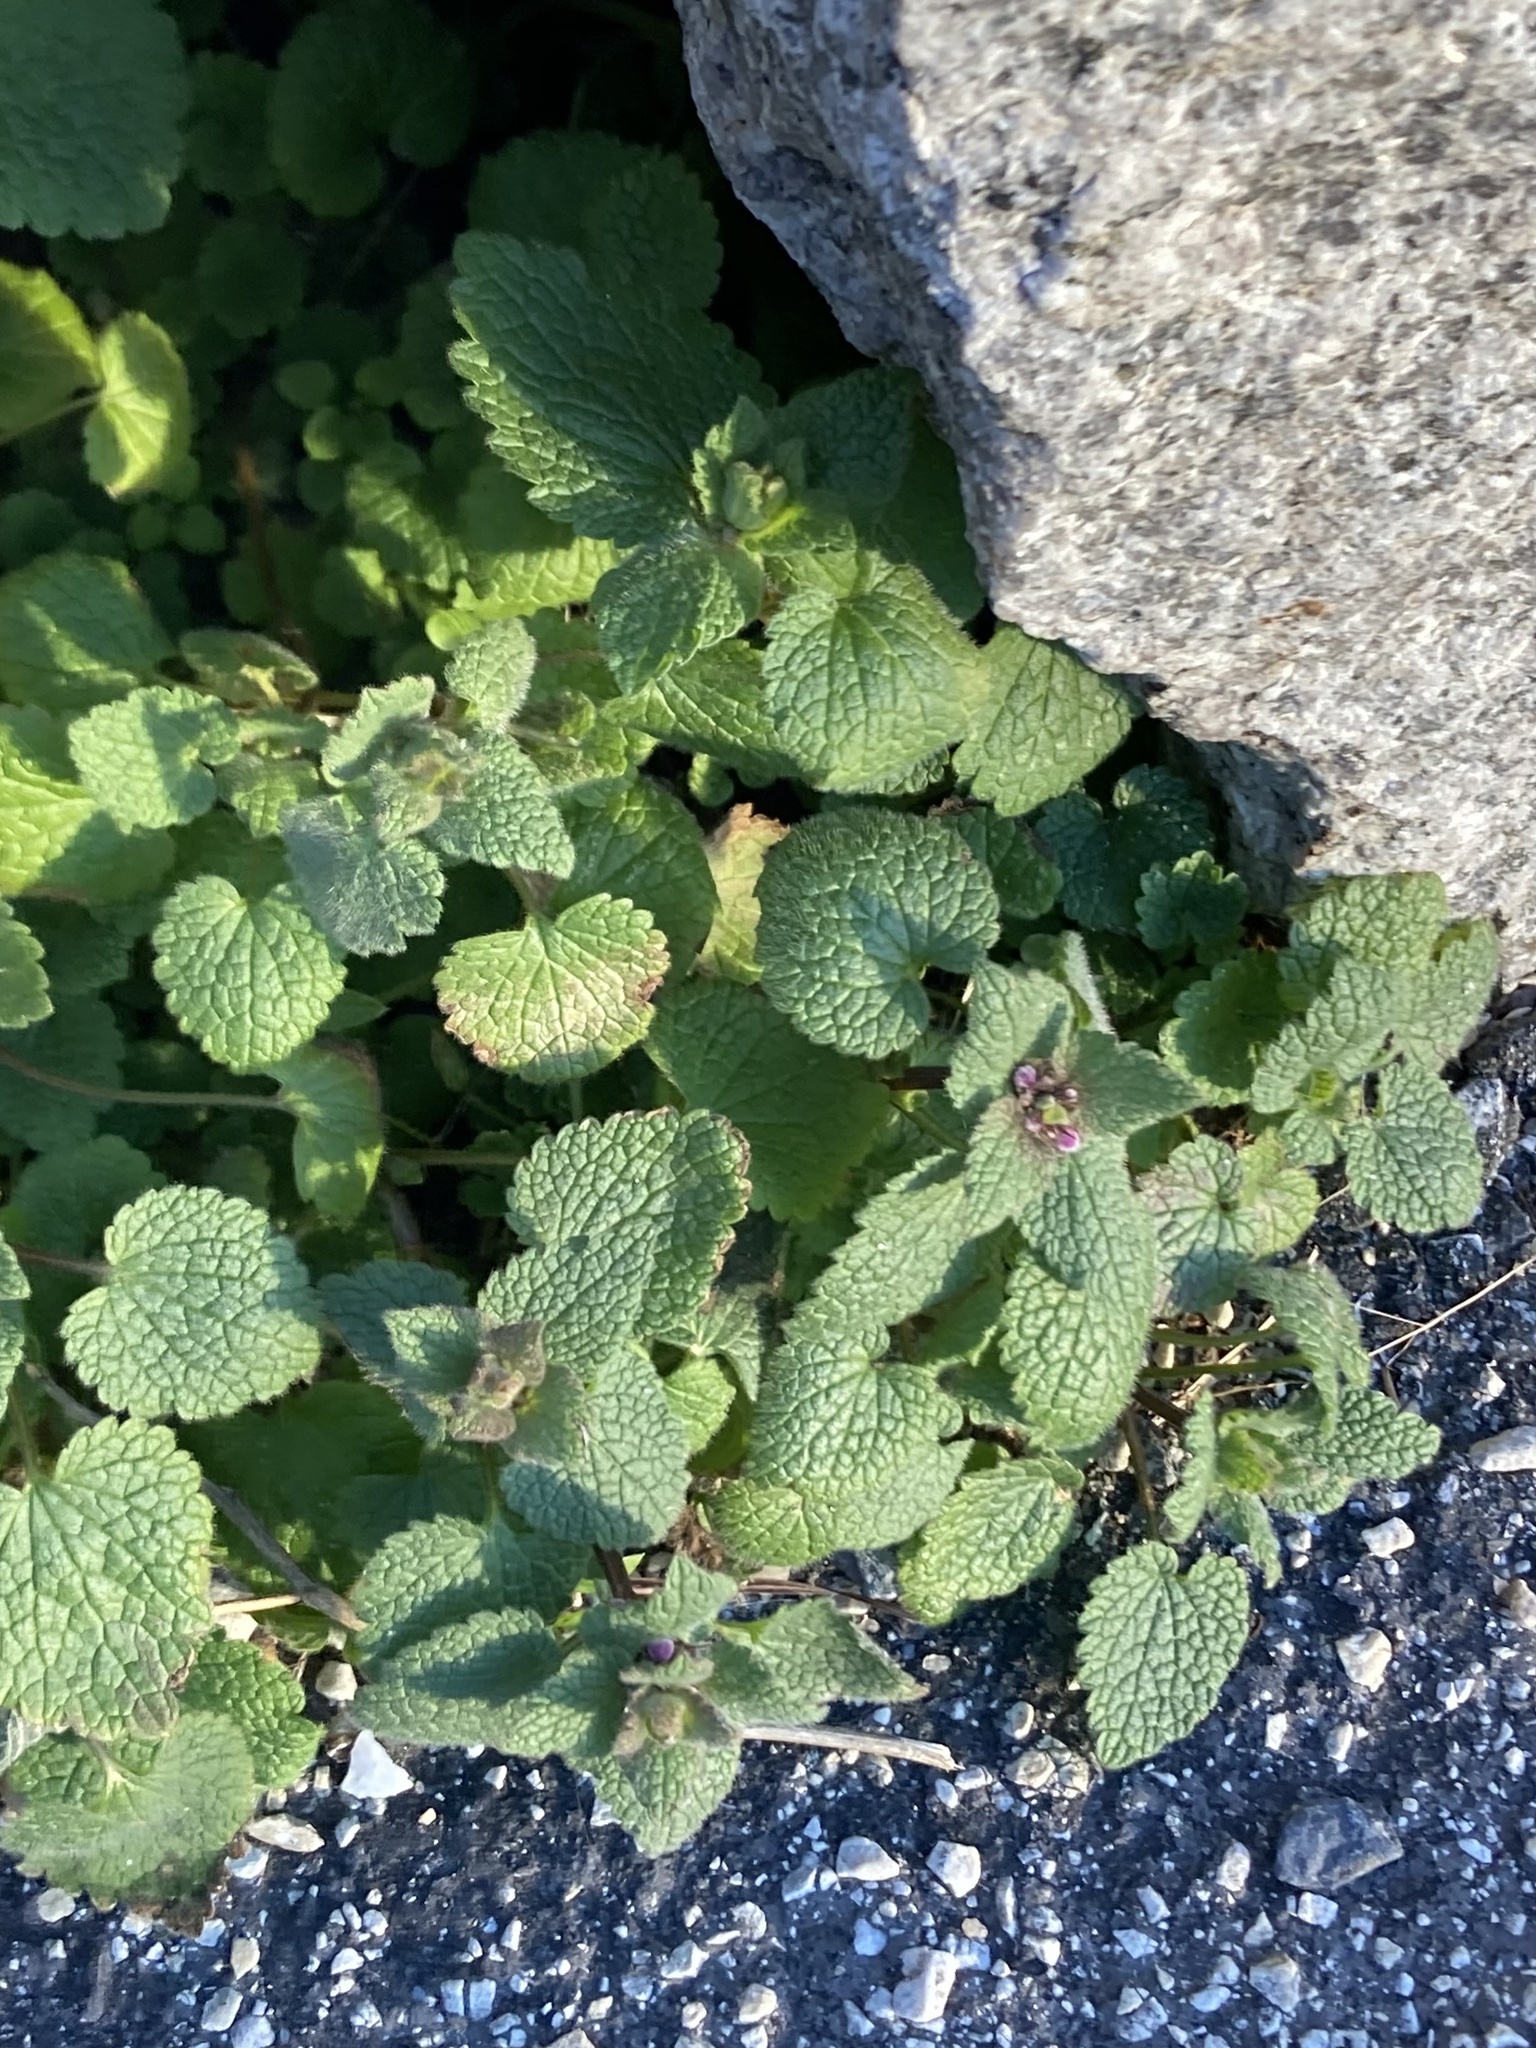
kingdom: Plantae
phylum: Tracheophyta
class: Magnoliopsida
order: Lamiales
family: Lamiaceae
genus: Lamium
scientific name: Lamium purpureum
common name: Red dead-nettle
